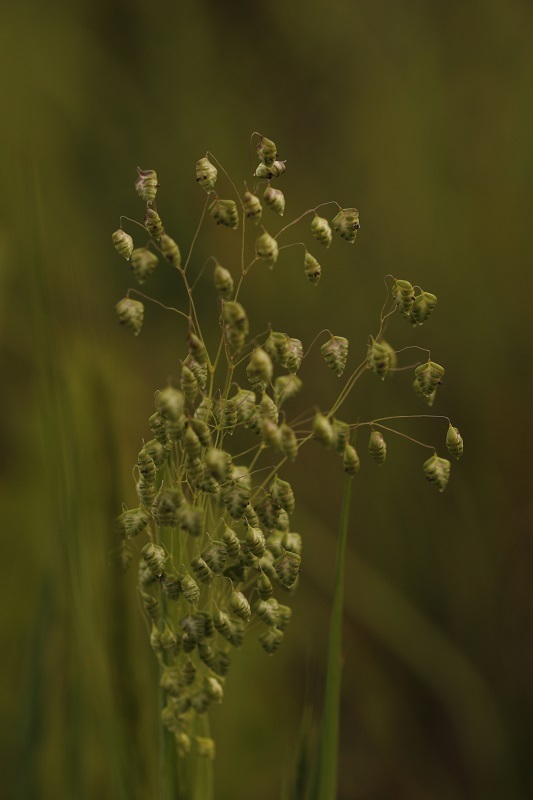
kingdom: Plantae
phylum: Tracheophyta
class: Liliopsida
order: Poales
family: Poaceae
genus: Briza
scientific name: Briza minor
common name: Lesser quaking-grass
